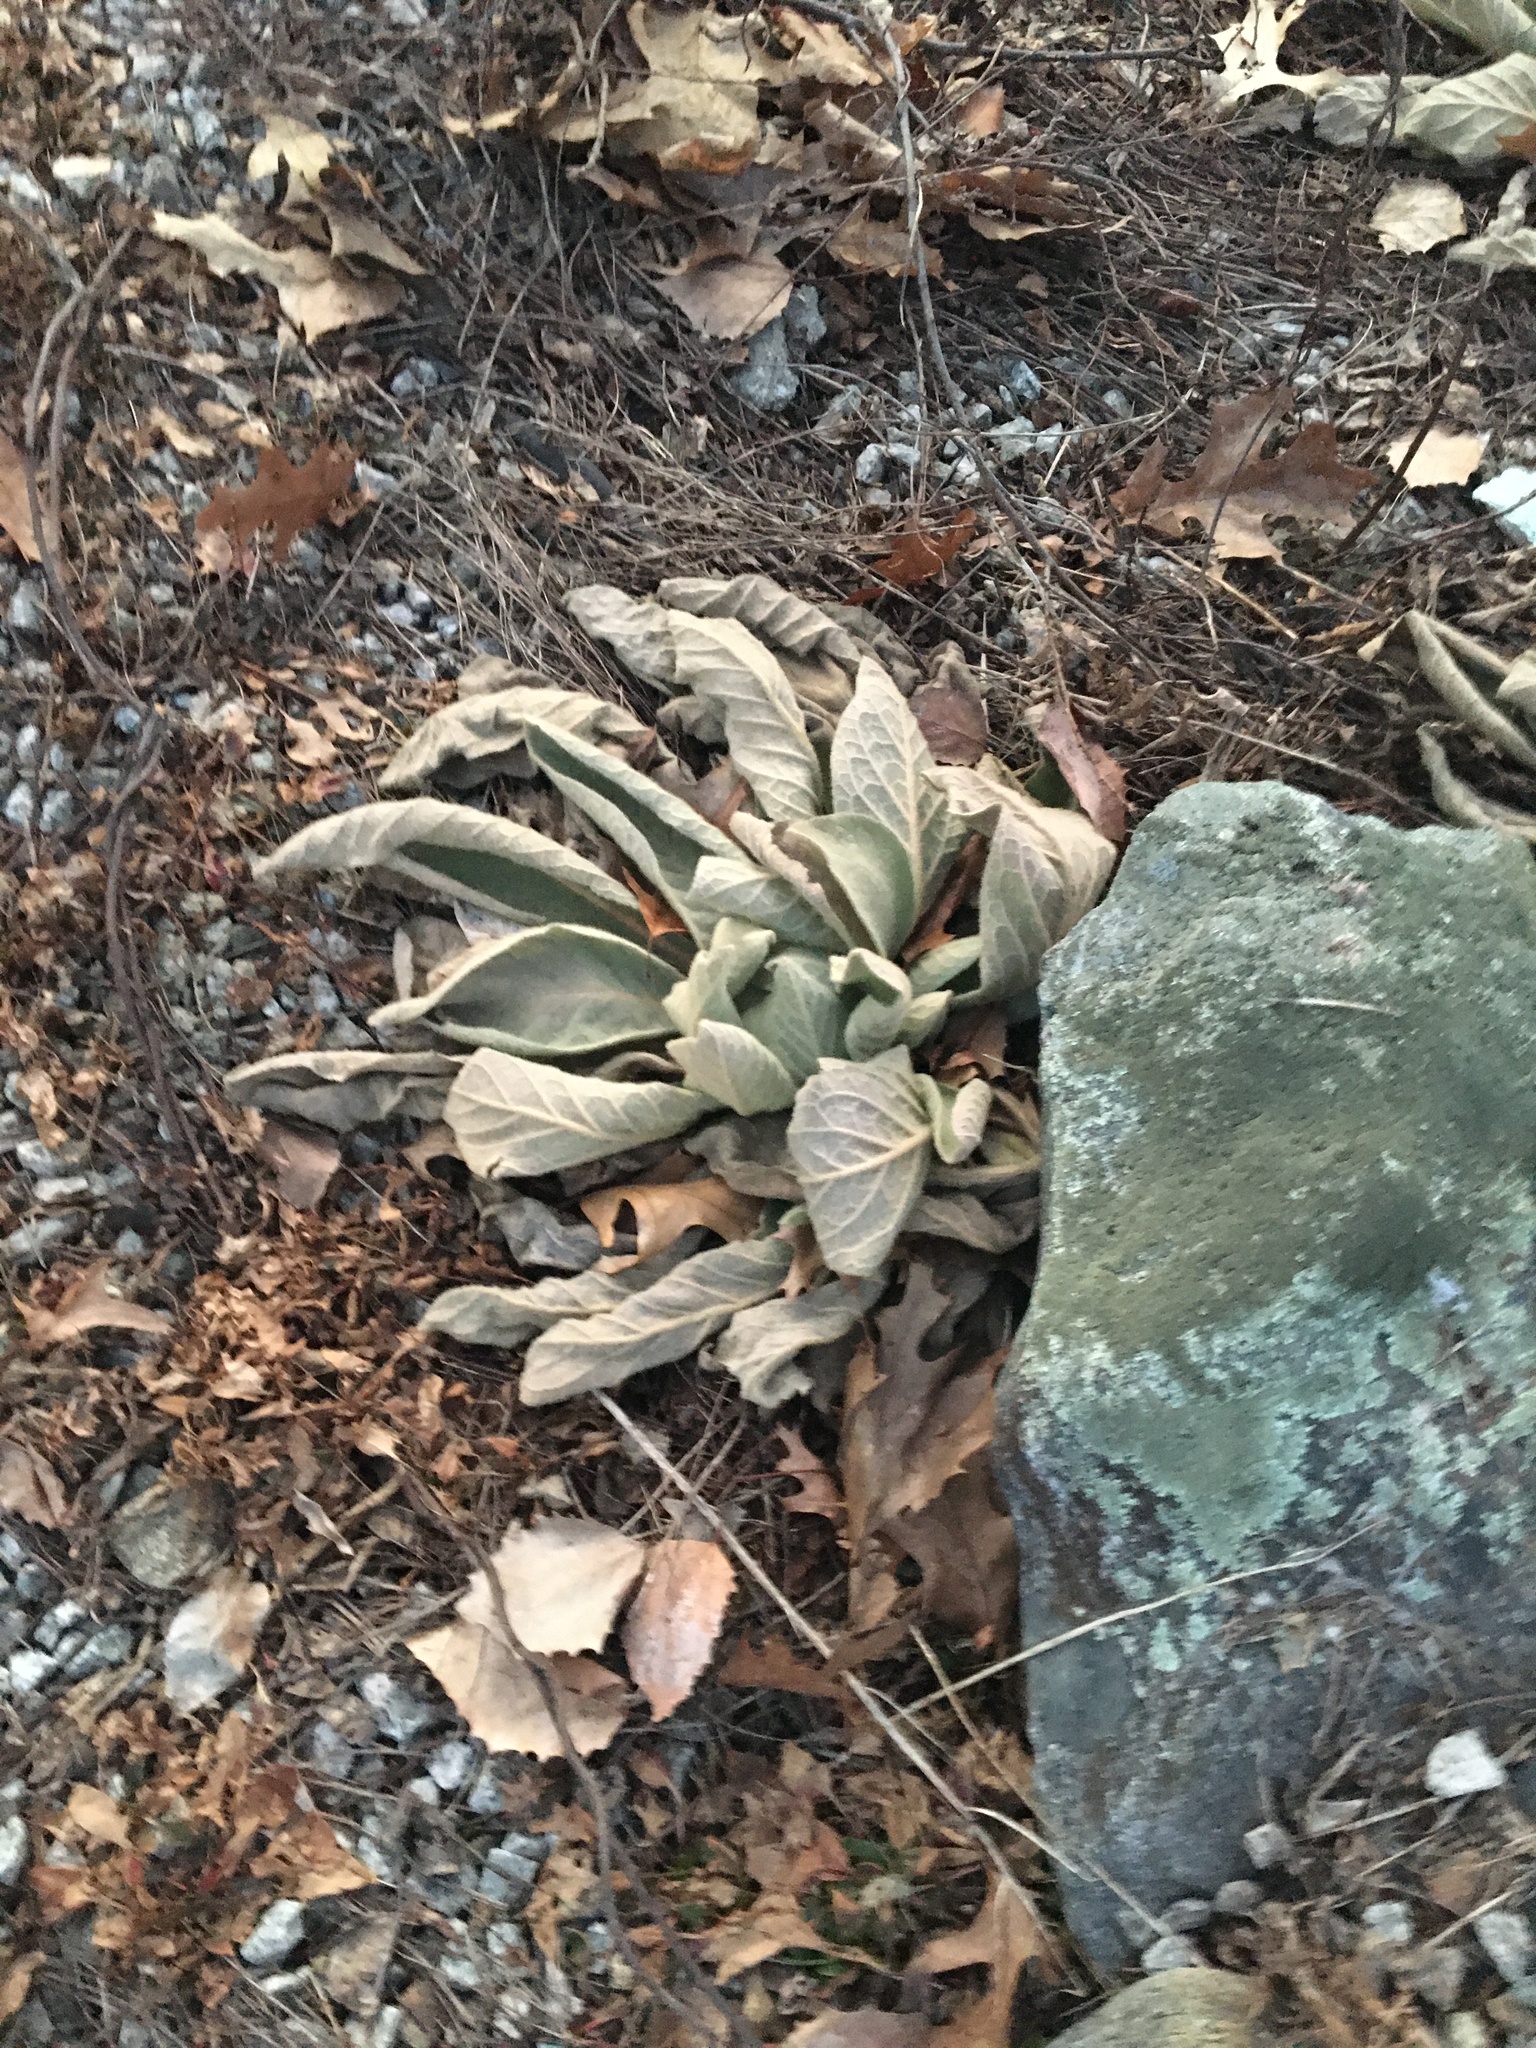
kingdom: Plantae
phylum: Tracheophyta
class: Magnoliopsida
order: Lamiales
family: Scrophulariaceae
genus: Verbascum
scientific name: Verbascum thapsus
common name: Common mullein
